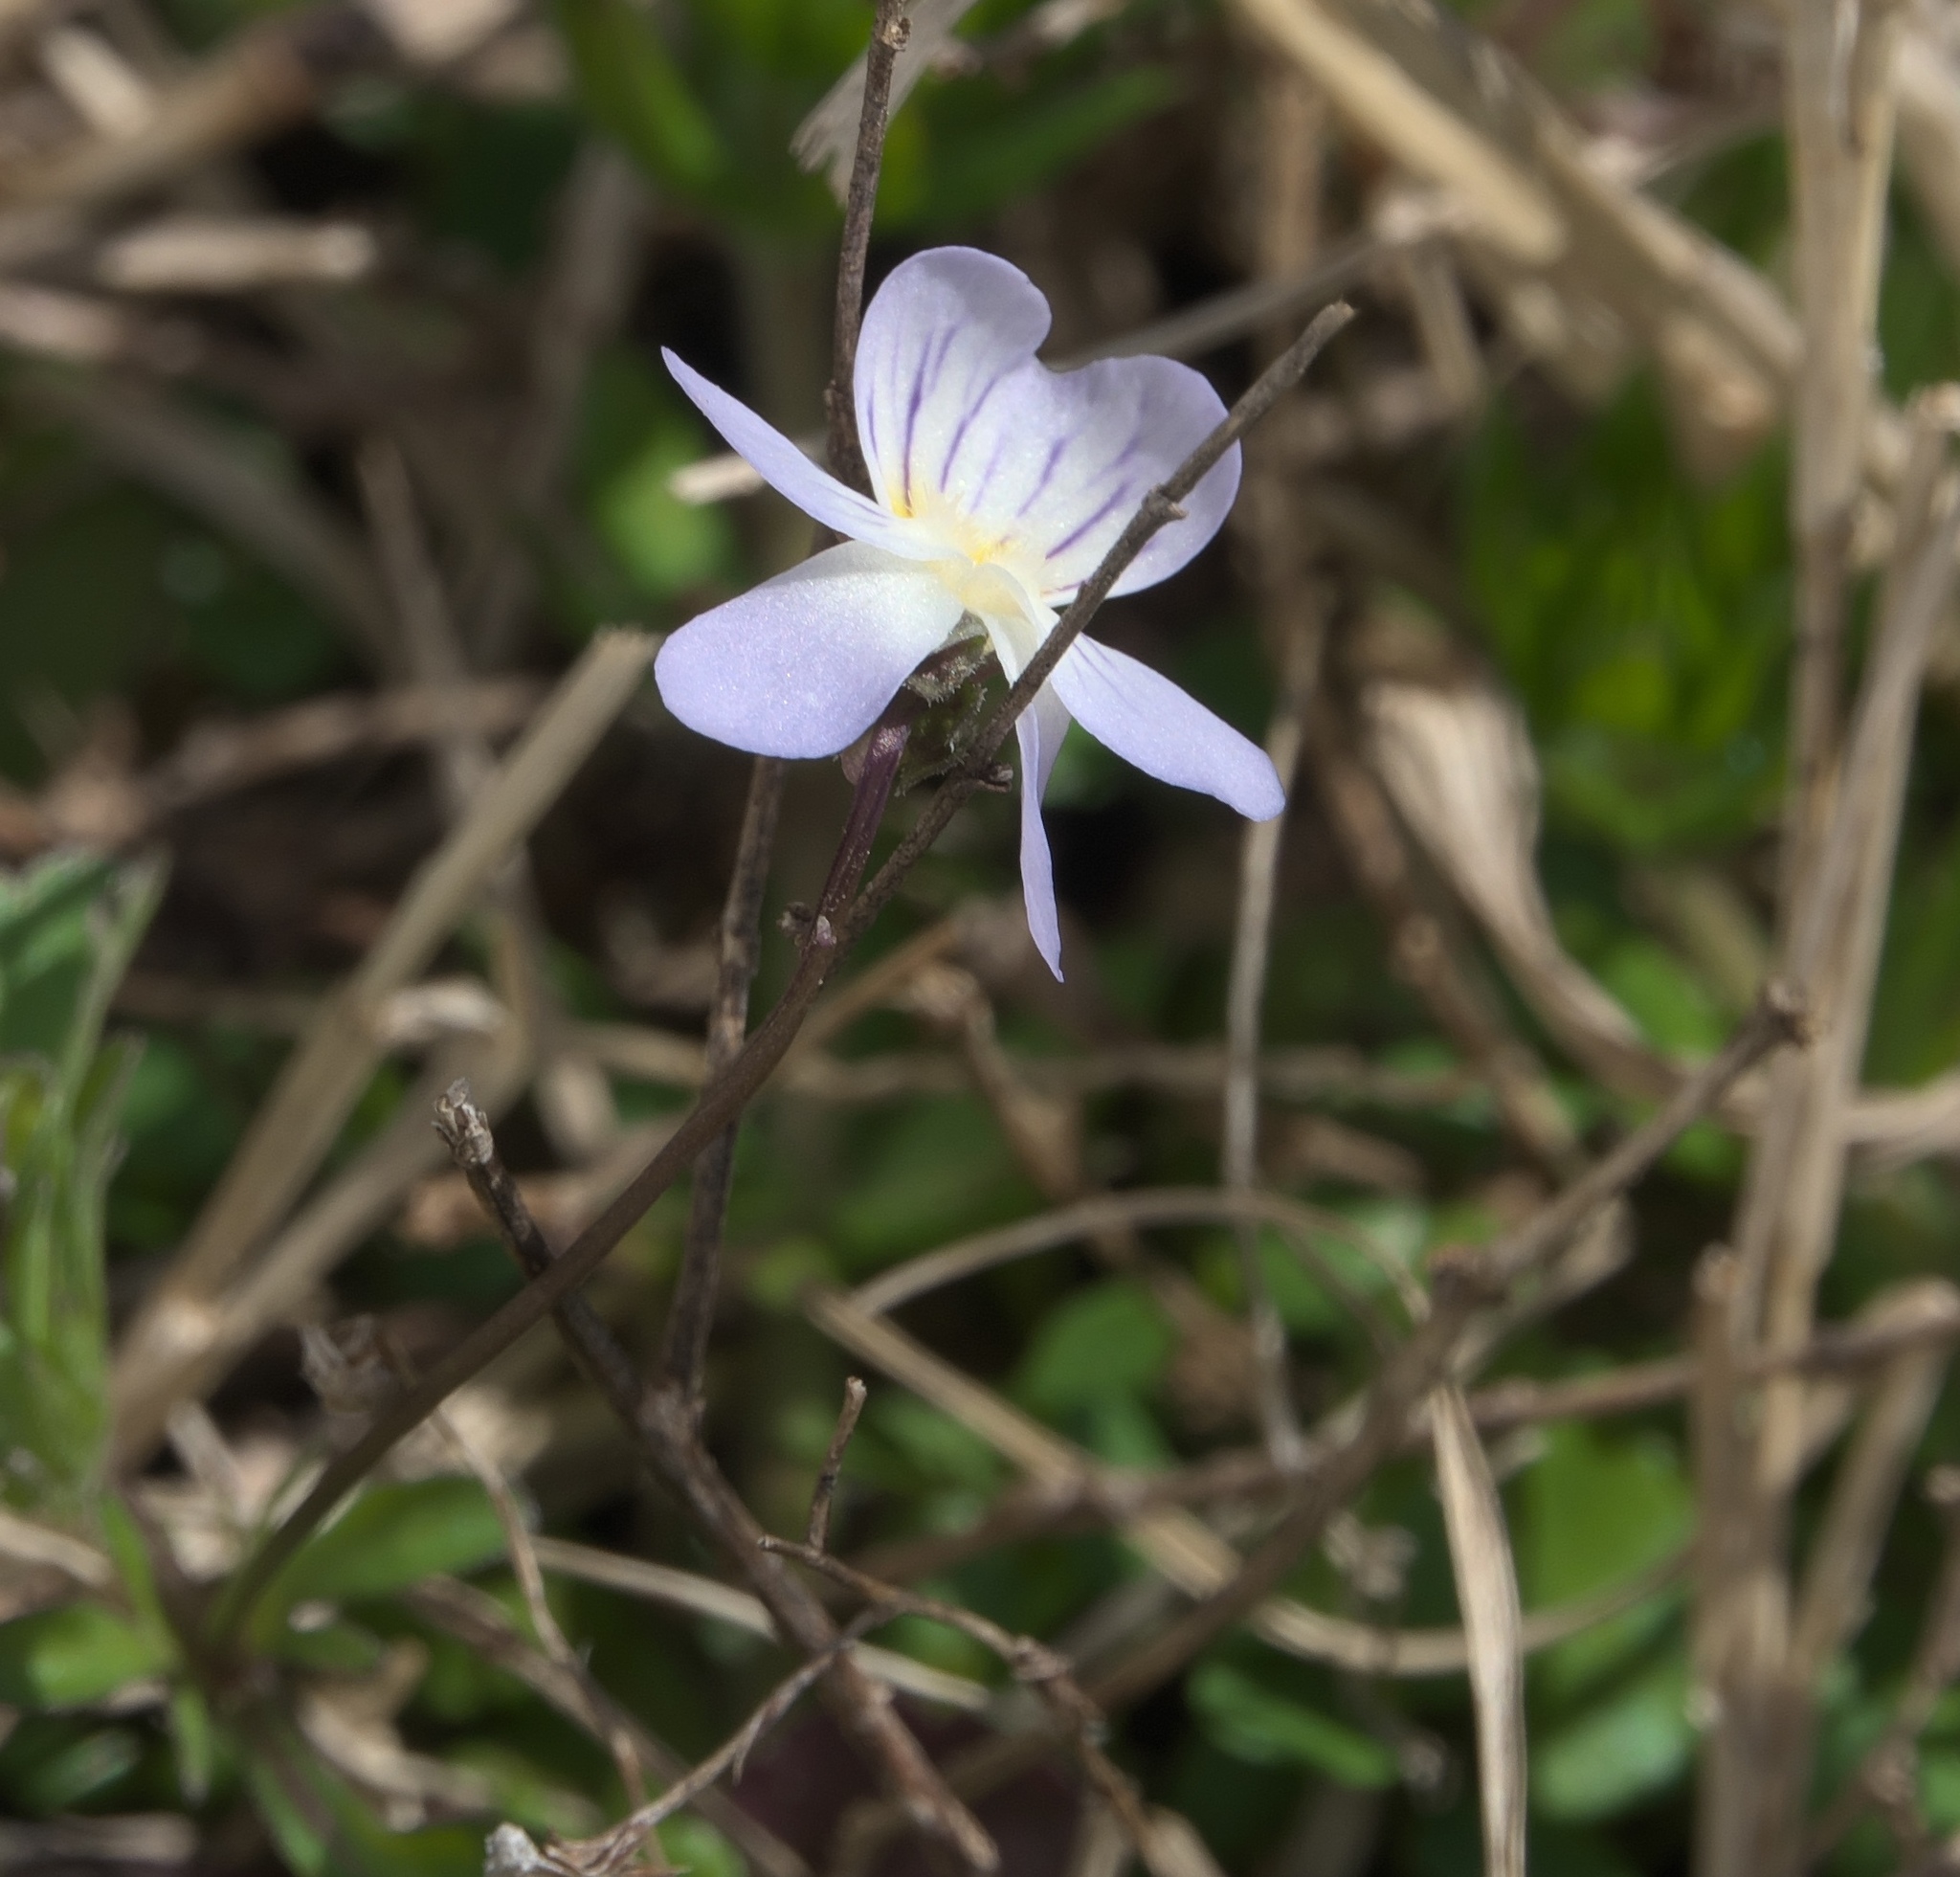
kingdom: Plantae
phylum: Tracheophyta
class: Magnoliopsida
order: Malpighiales
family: Violaceae
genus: Viola
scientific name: Viola rafinesquei
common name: American field pansy
